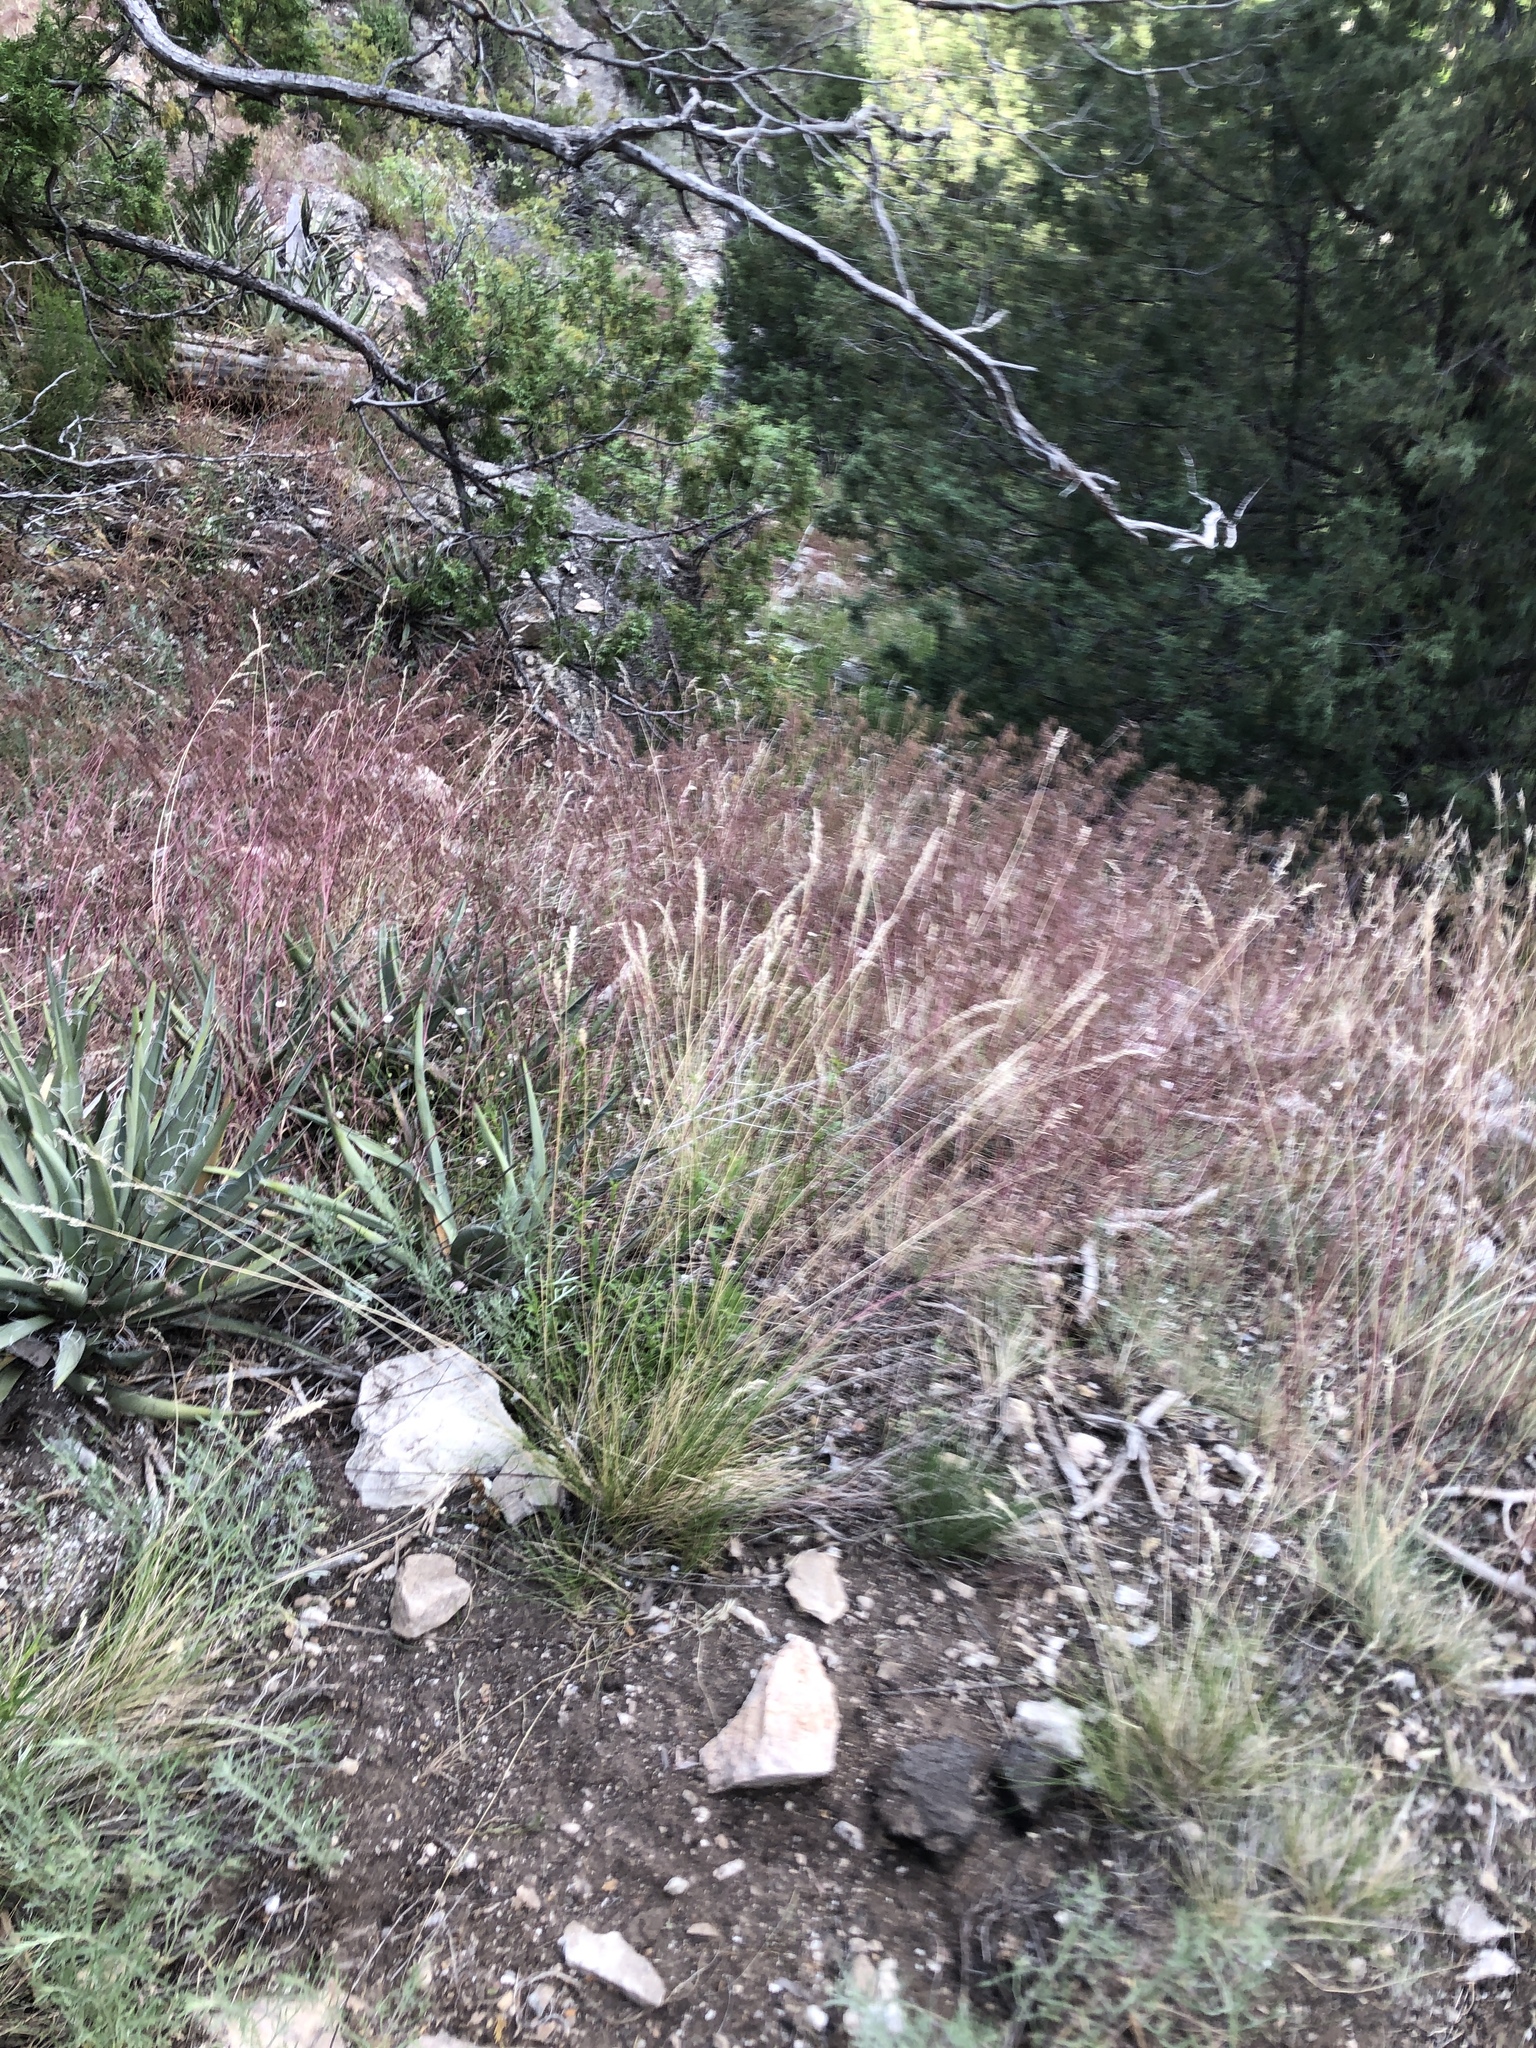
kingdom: Plantae
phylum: Tracheophyta
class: Liliopsida
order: Poales
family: Poaceae
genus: Bromus
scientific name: Bromus tectorum
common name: Cheatgrass
